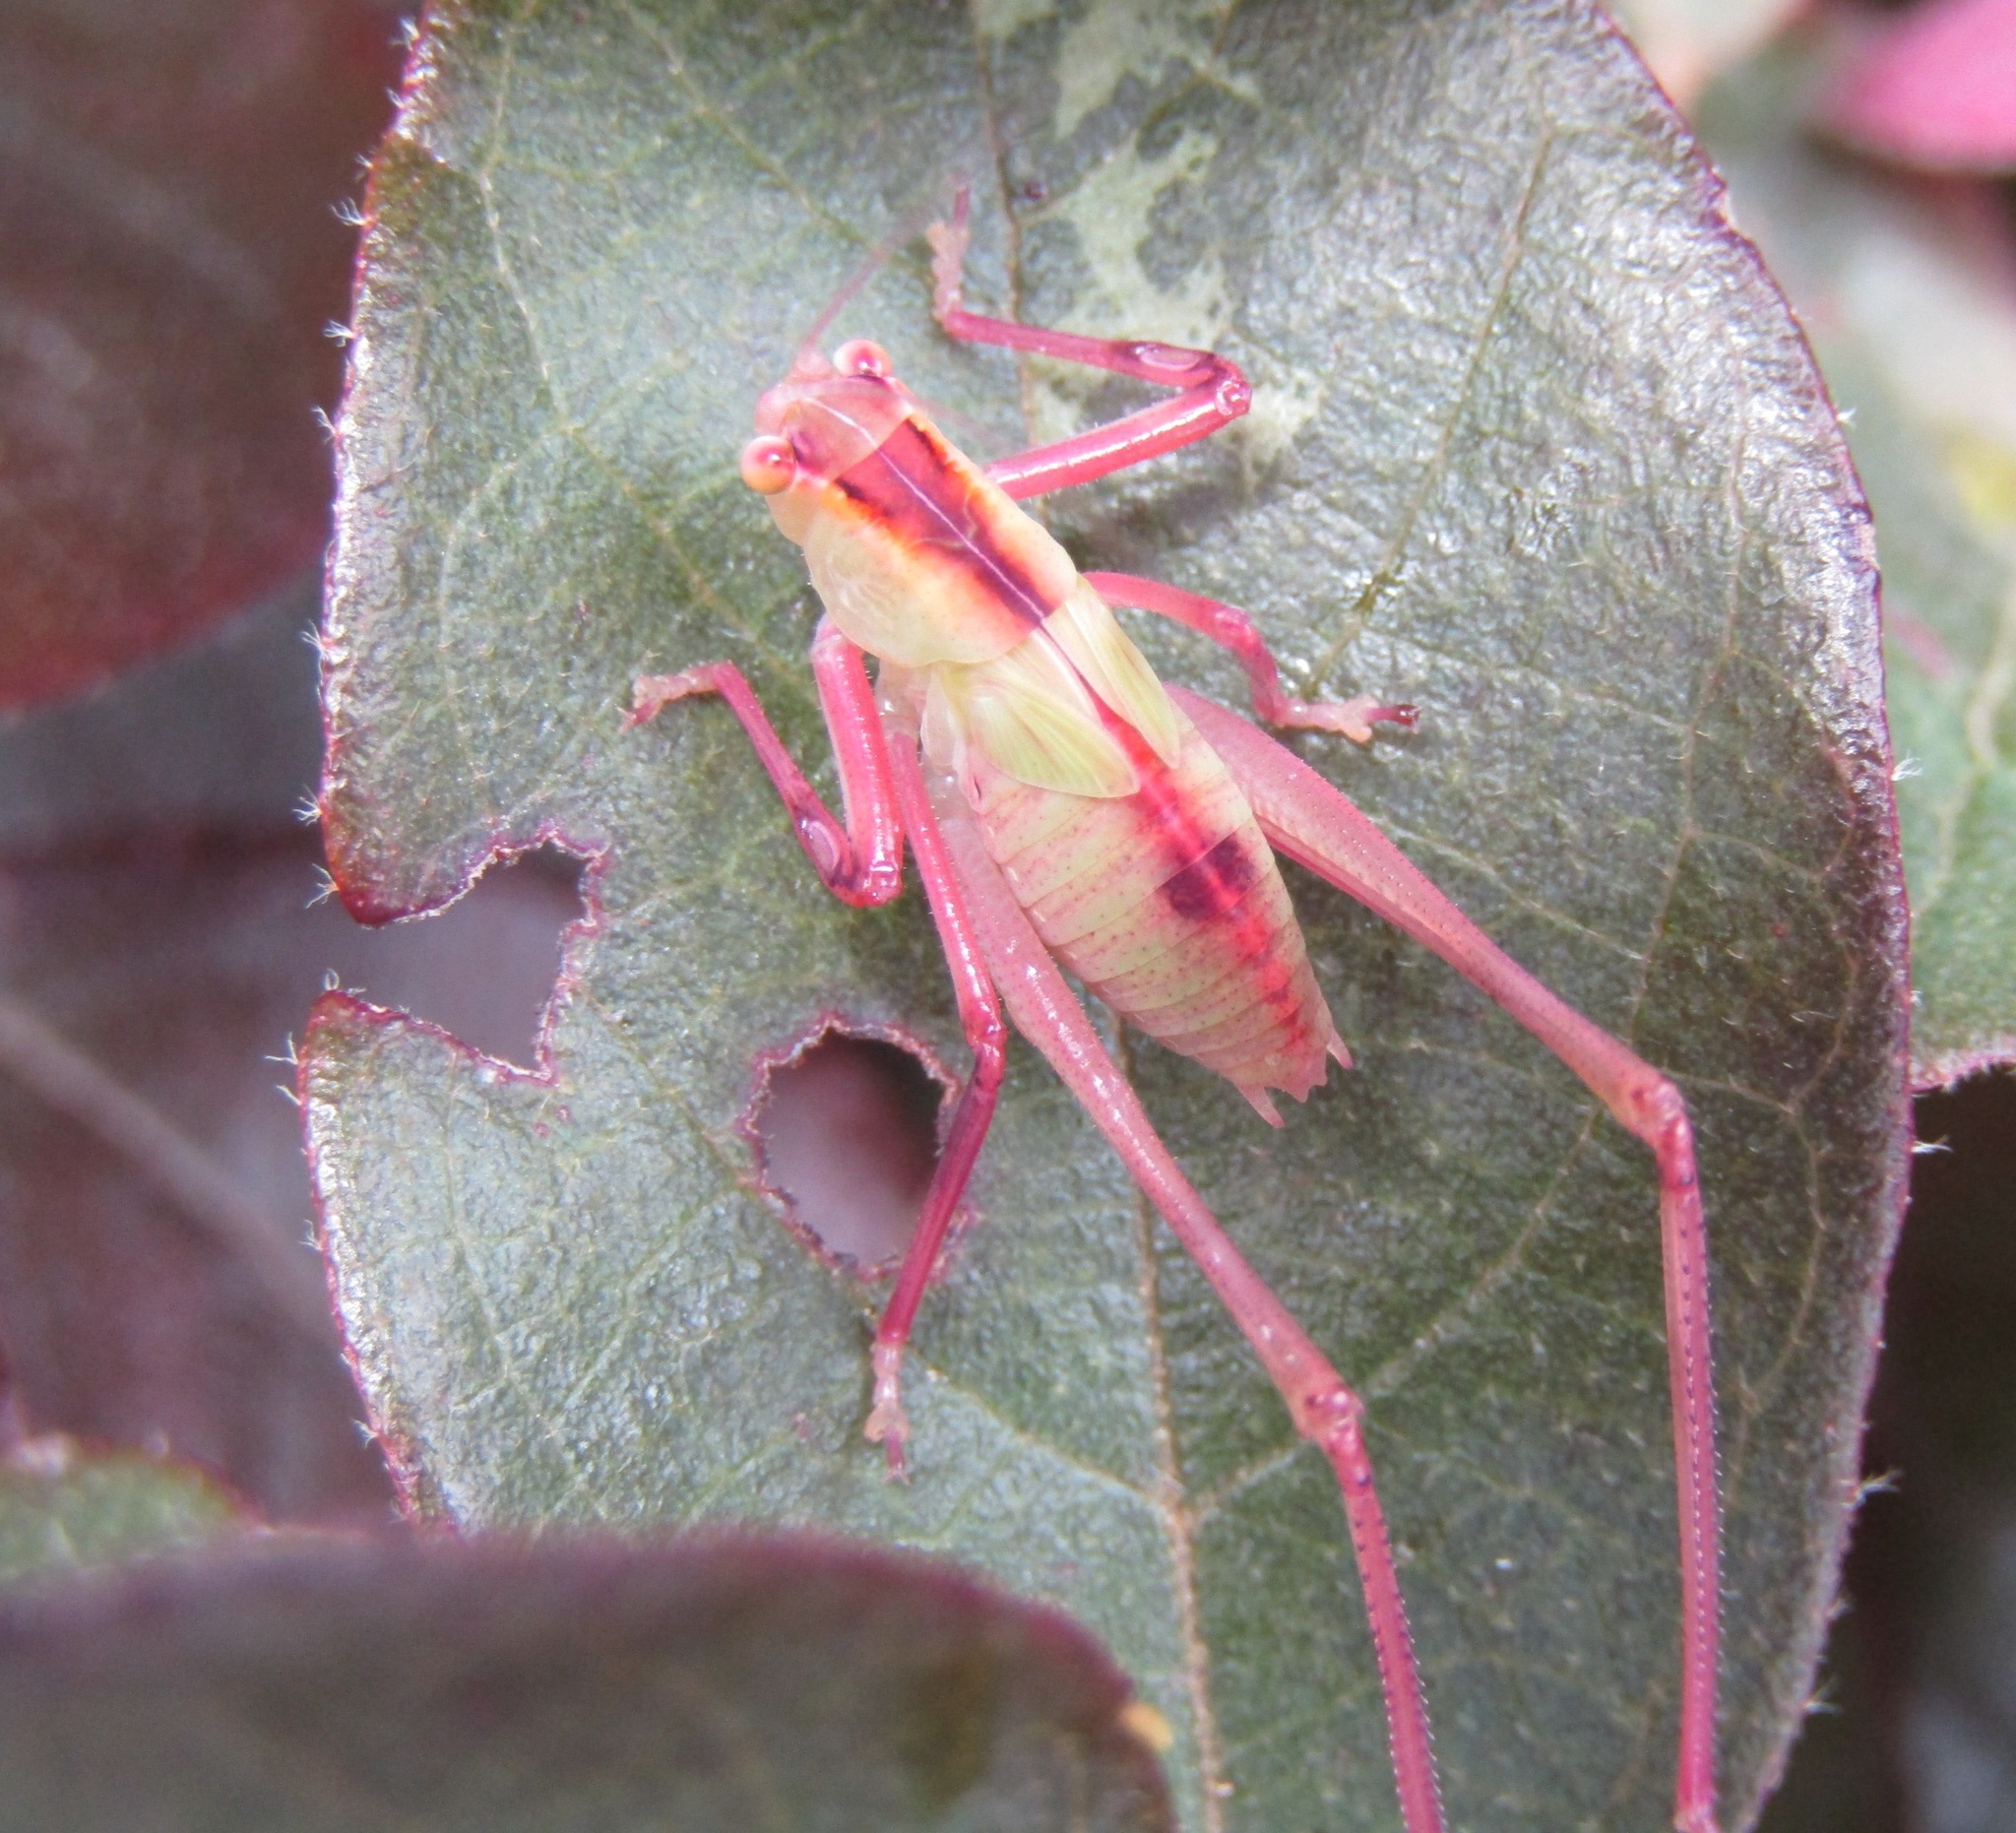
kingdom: Animalia
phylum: Arthropoda
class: Insecta
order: Orthoptera
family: Tettigoniidae
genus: Caedicia
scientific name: Caedicia simplex
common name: Common garden katydid
